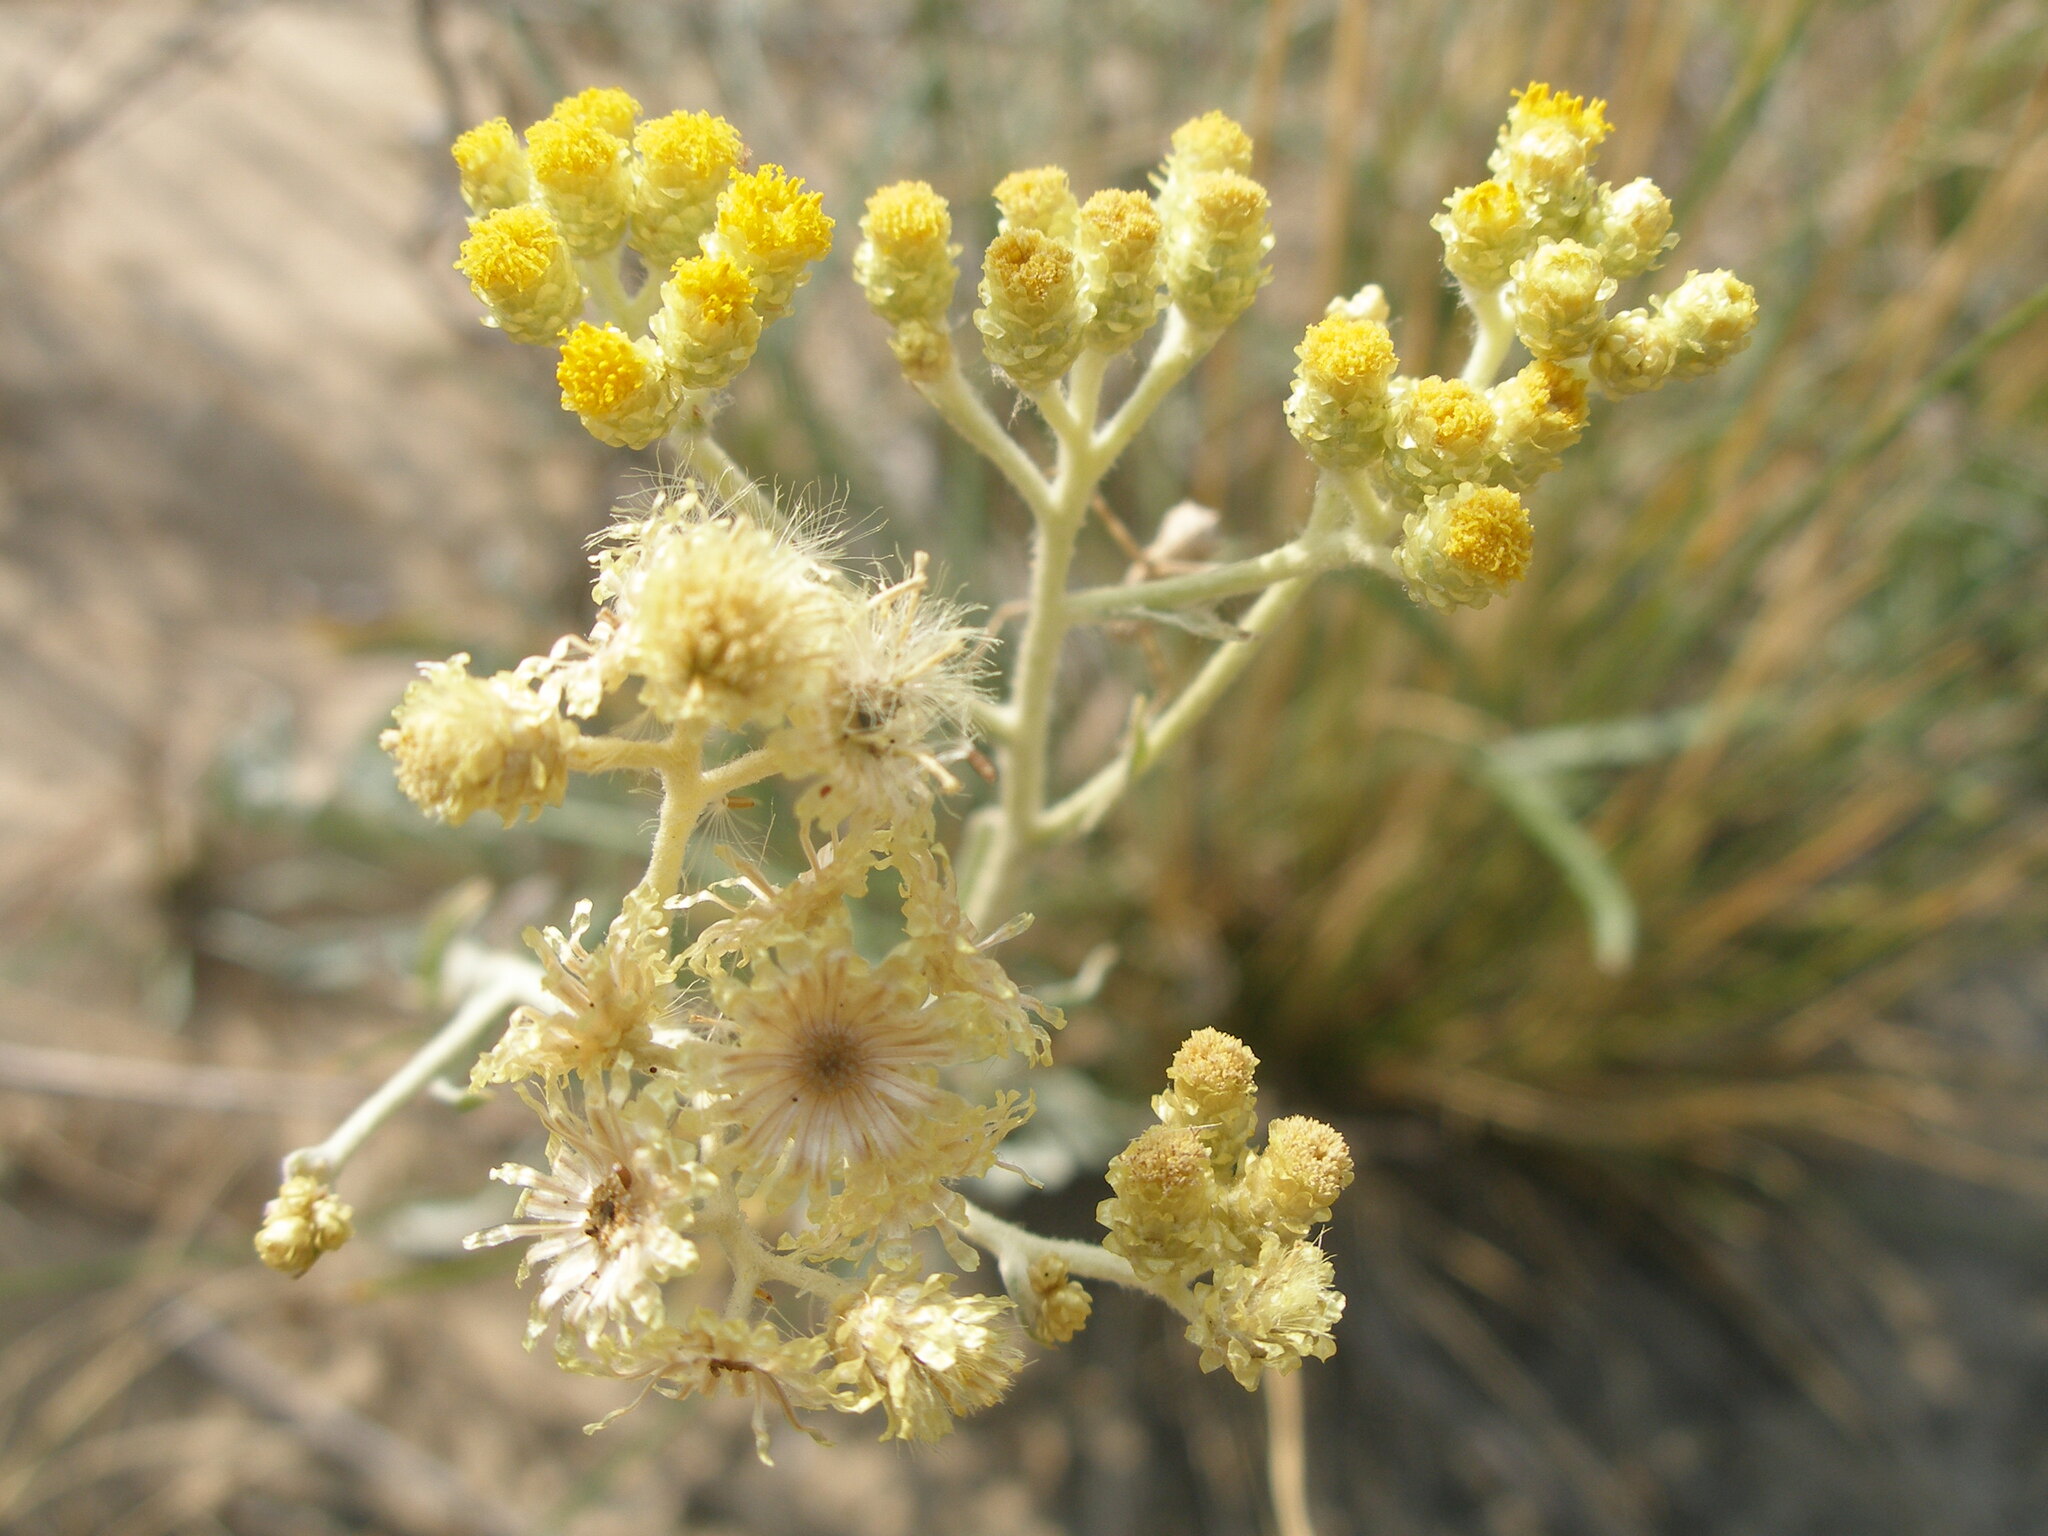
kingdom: Plantae
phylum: Tracheophyta
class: Magnoliopsida
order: Asterales
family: Asteraceae
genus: Helichrysum
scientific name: Helichrysum arenarium
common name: Strawflower
